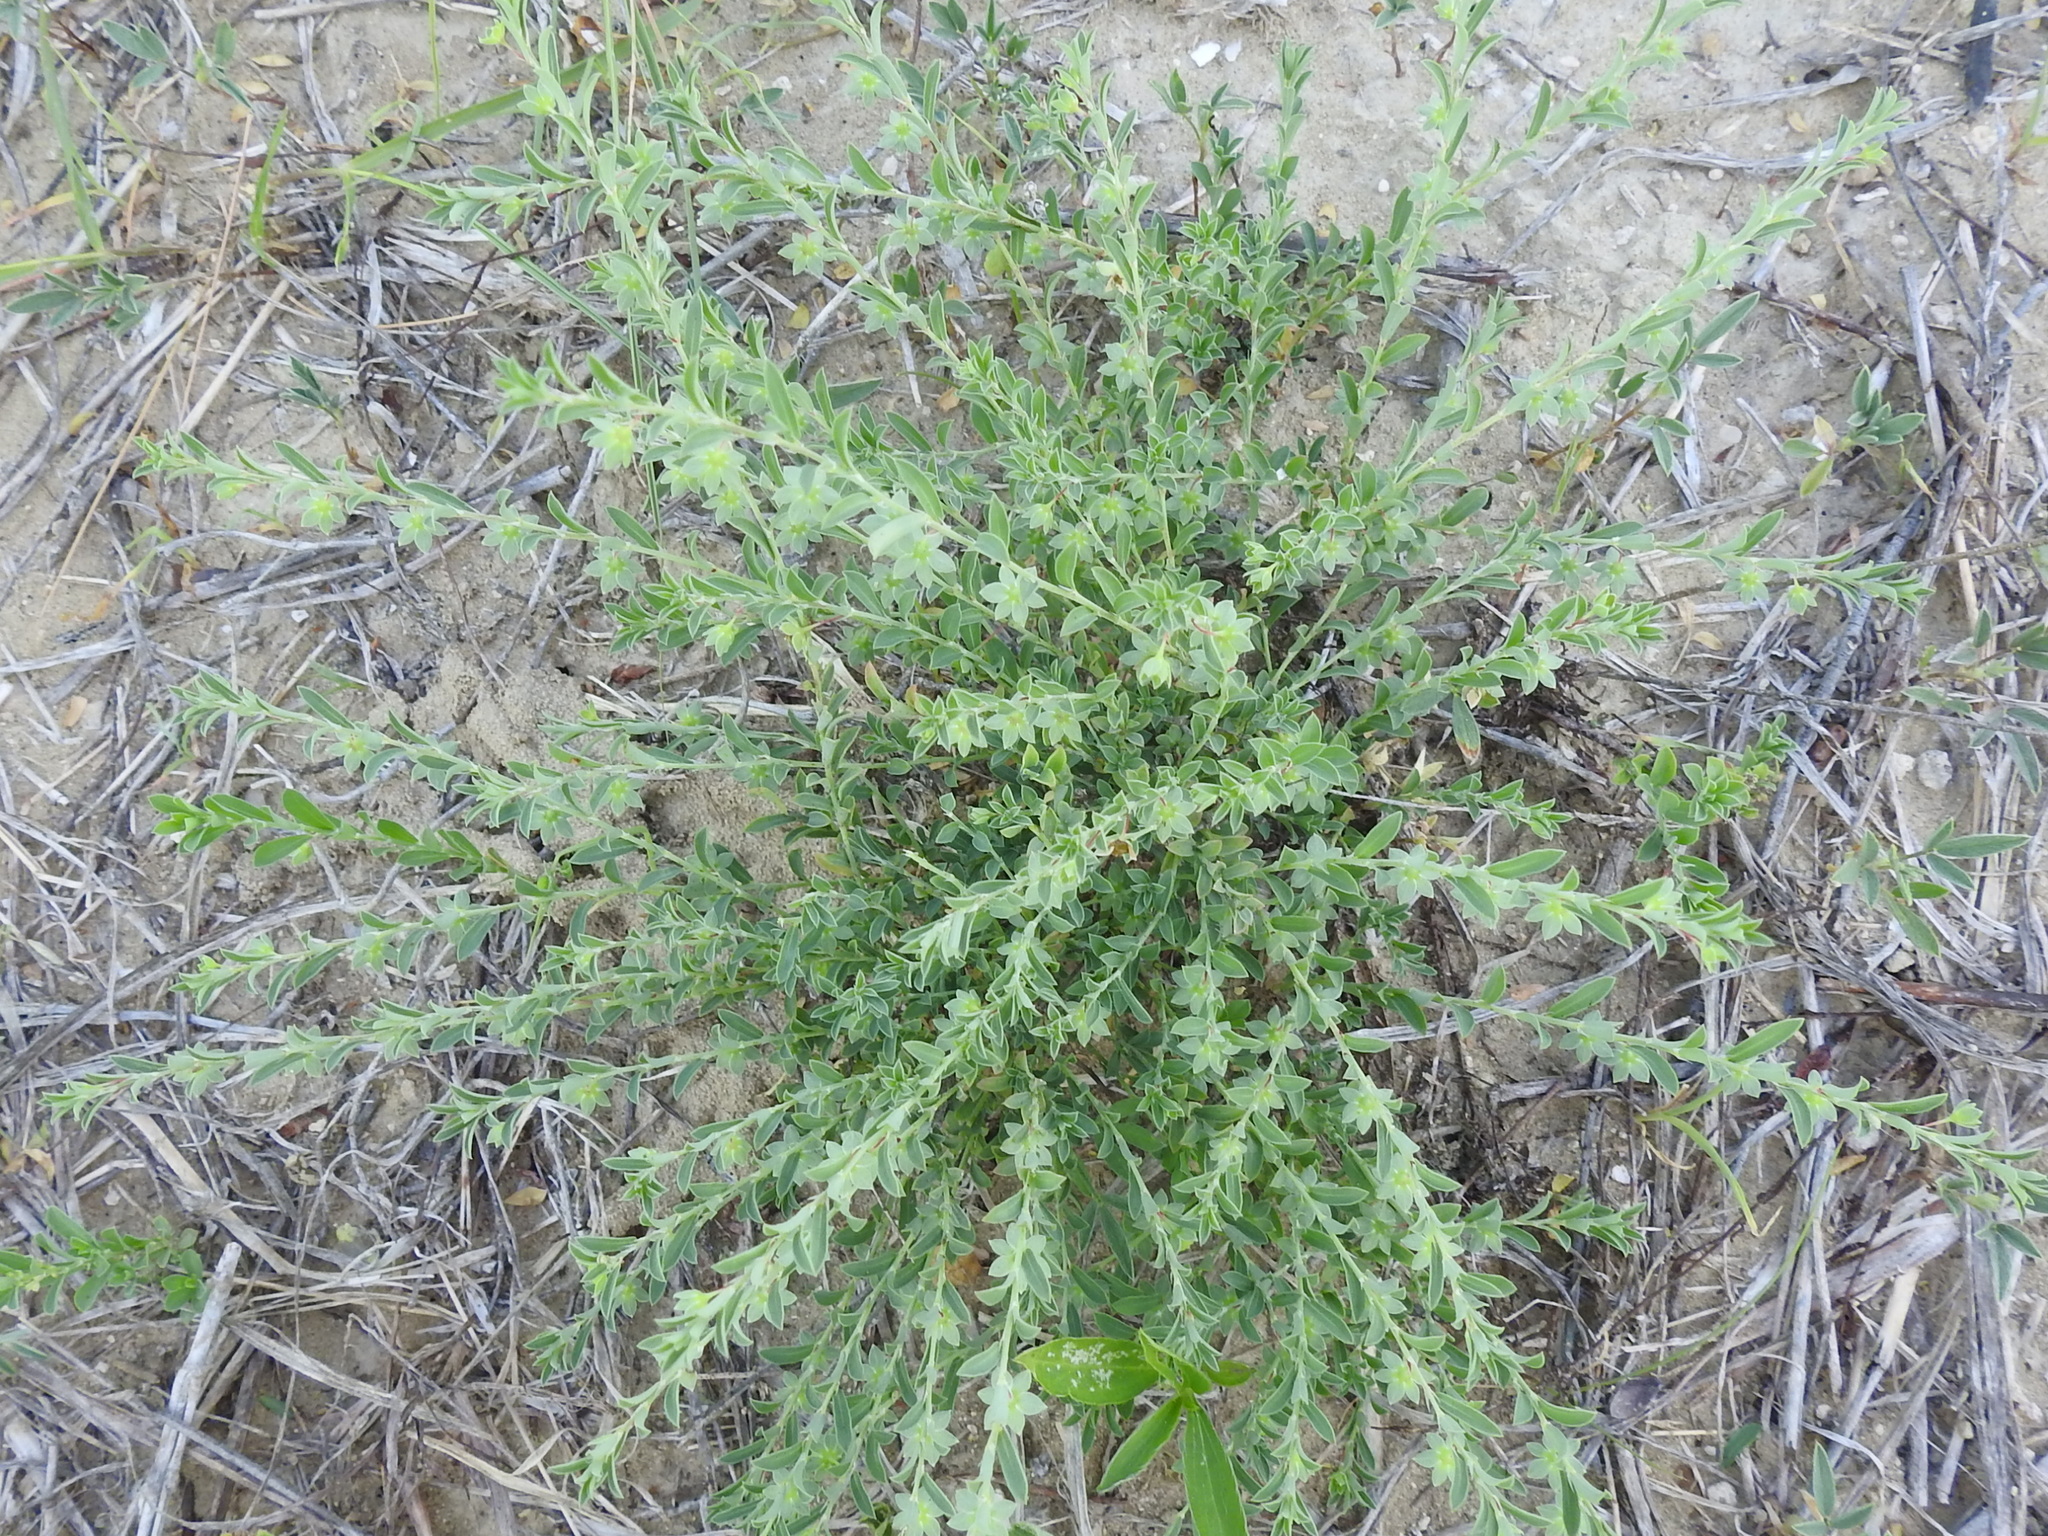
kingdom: Plantae
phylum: Tracheophyta
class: Magnoliopsida
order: Malpighiales
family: Phyllanthaceae
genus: Phyllanthus
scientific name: Phyllanthus polygonoides
